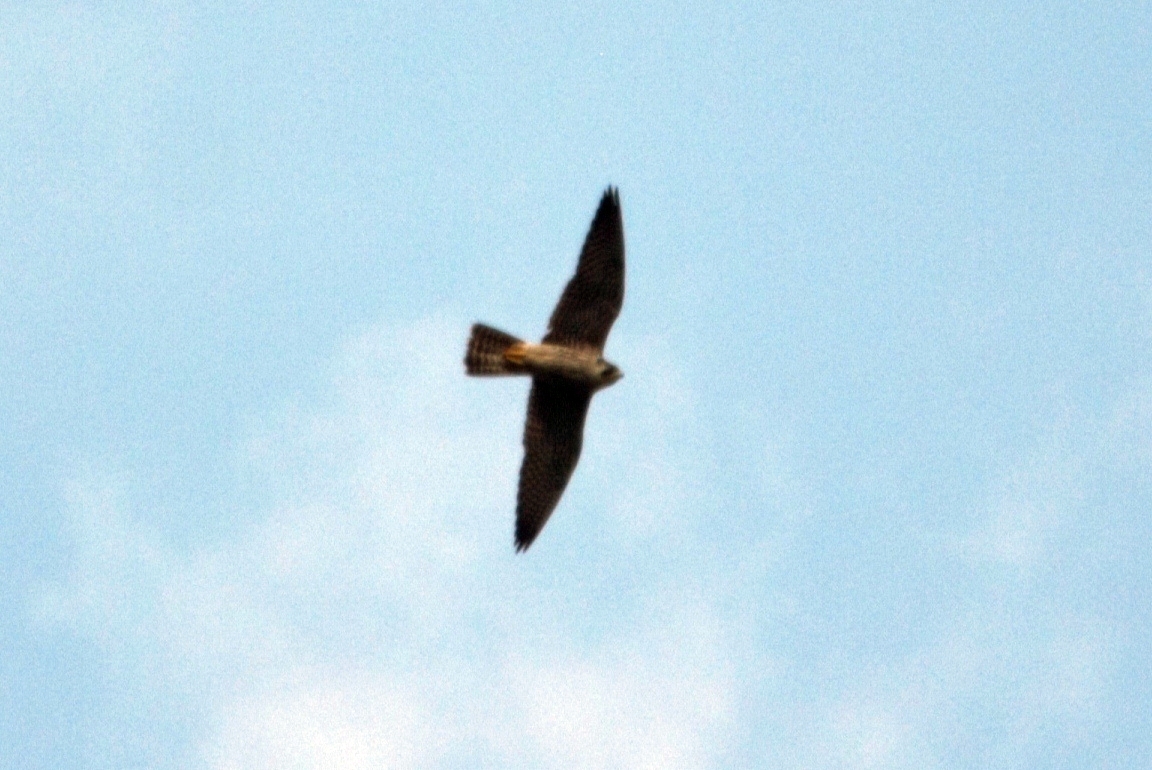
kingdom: Animalia
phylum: Chordata
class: Aves
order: Falconiformes
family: Falconidae
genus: Falco
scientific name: Falco peregrinus
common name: Peregrine falcon
